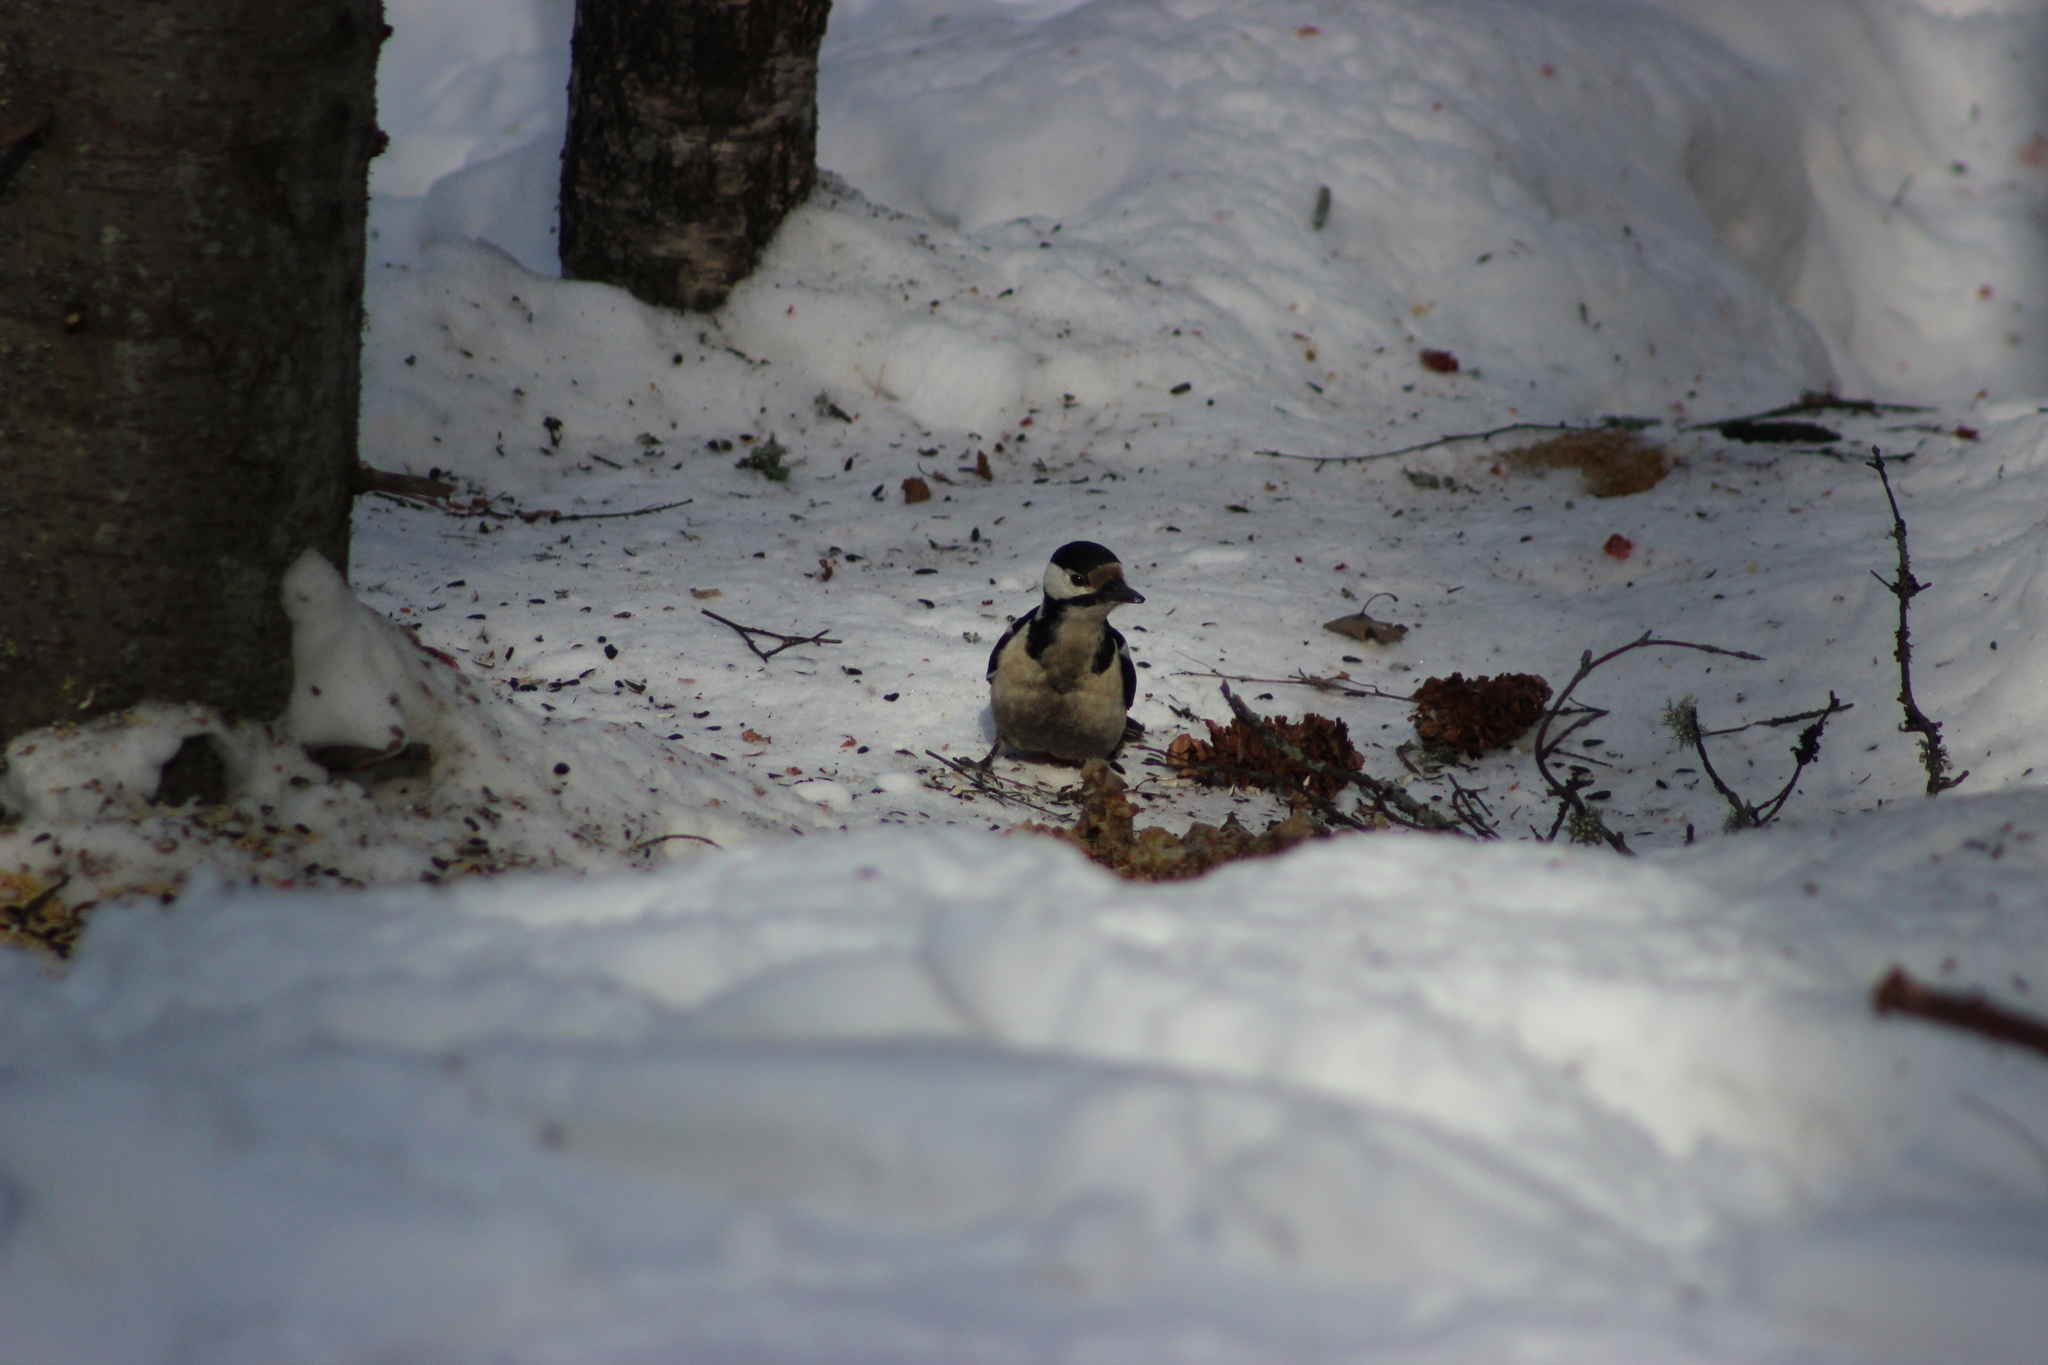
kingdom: Animalia
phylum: Chordata
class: Aves
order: Piciformes
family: Picidae
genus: Dendrocopos
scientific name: Dendrocopos major
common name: Great spotted woodpecker
